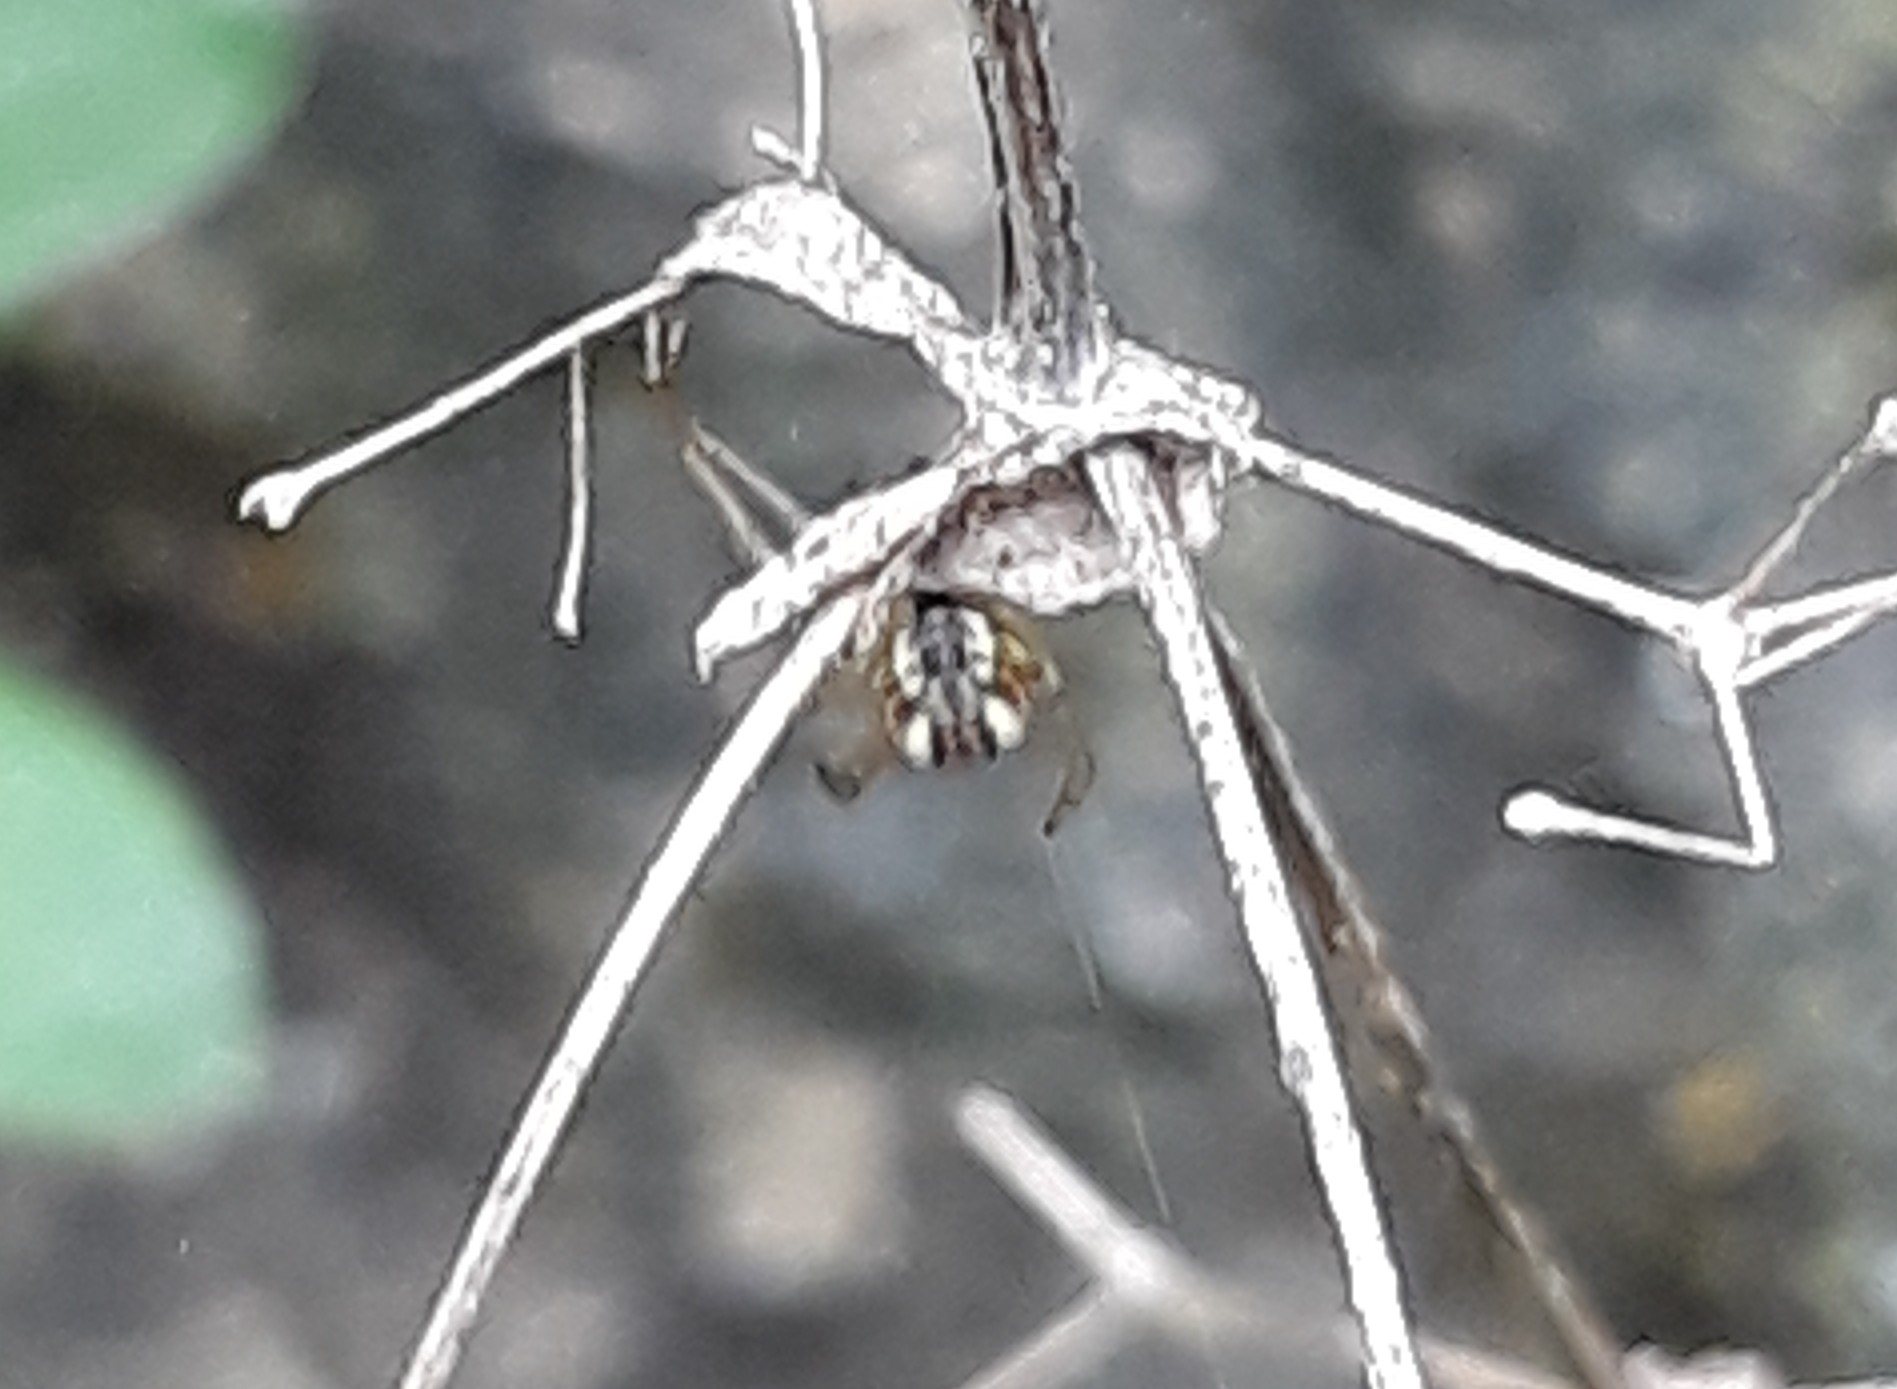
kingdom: Animalia
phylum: Arthropoda
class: Arachnida
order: Araneae
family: Araneidae
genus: Mangora
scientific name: Mangora acalypha
